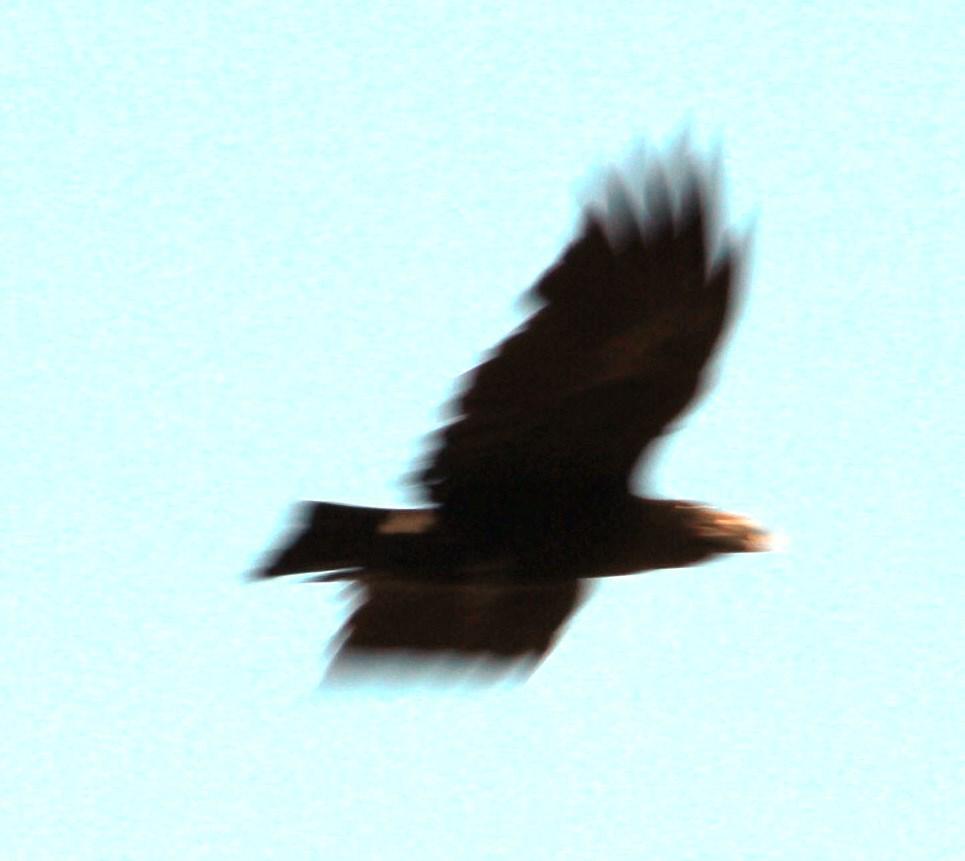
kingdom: Animalia
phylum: Chordata
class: Aves
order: Passeriformes
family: Corvidae
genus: Corvus
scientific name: Corvus albicollis
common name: White-necked raven
